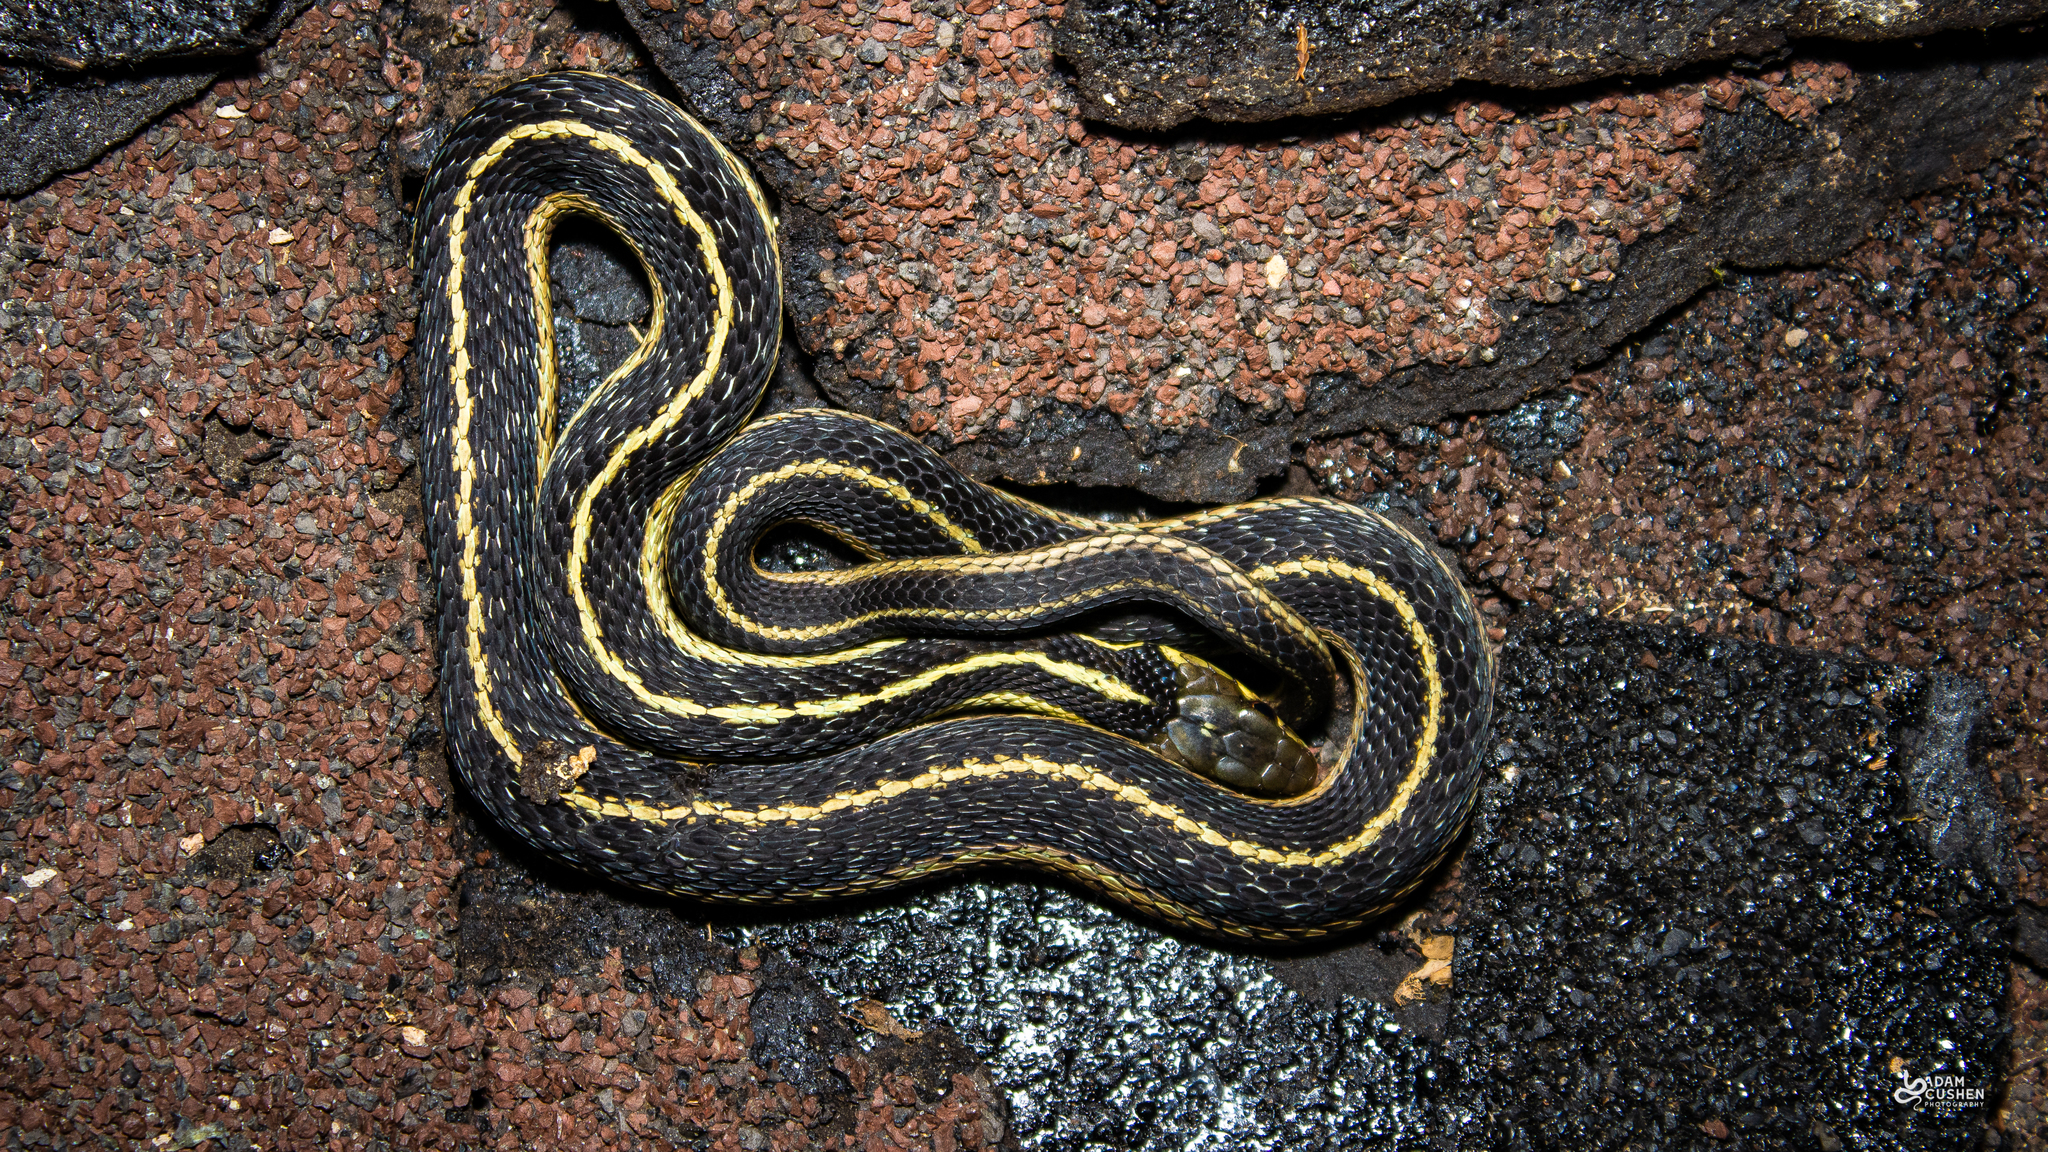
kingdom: Animalia
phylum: Chordata
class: Squamata
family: Colubridae
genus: Thamnophis
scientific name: Thamnophis sirtalis
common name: Common garter snake
